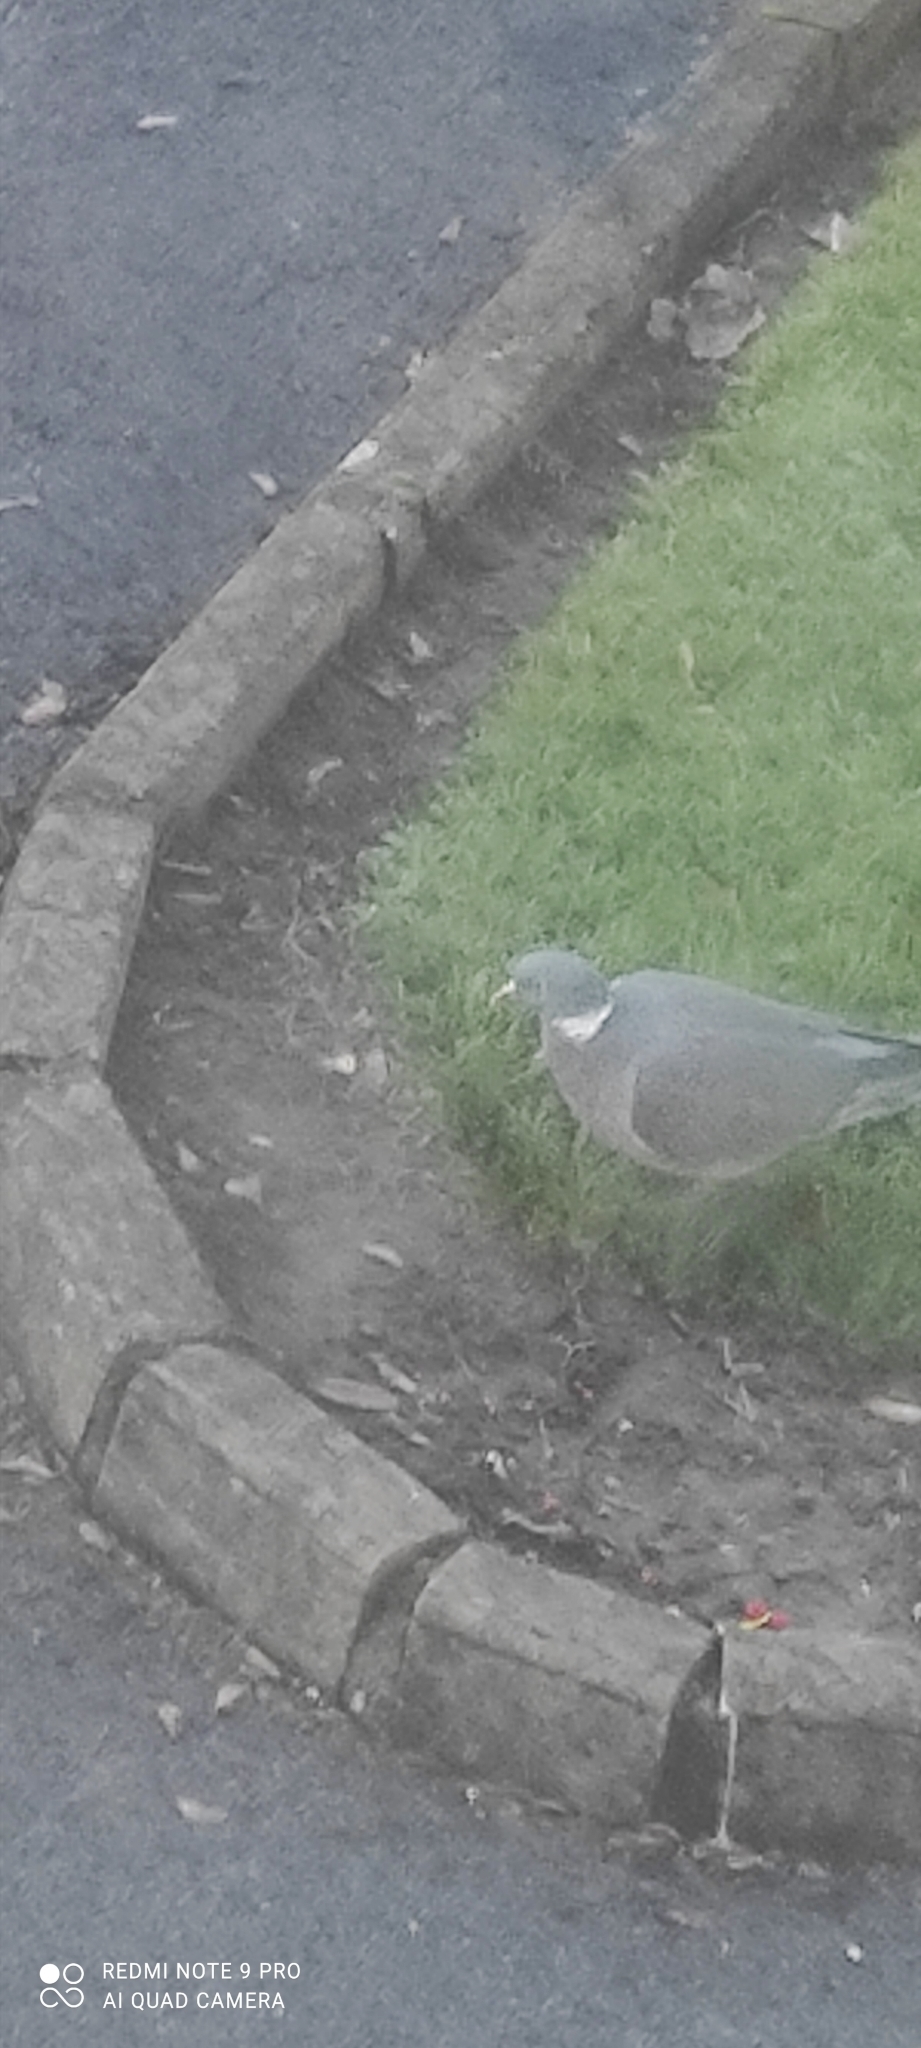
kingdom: Animalia
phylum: Chordata
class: Aves
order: Columbiformes
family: Columbidae
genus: Columba
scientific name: Columba palumbus
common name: Common wood pigeon
